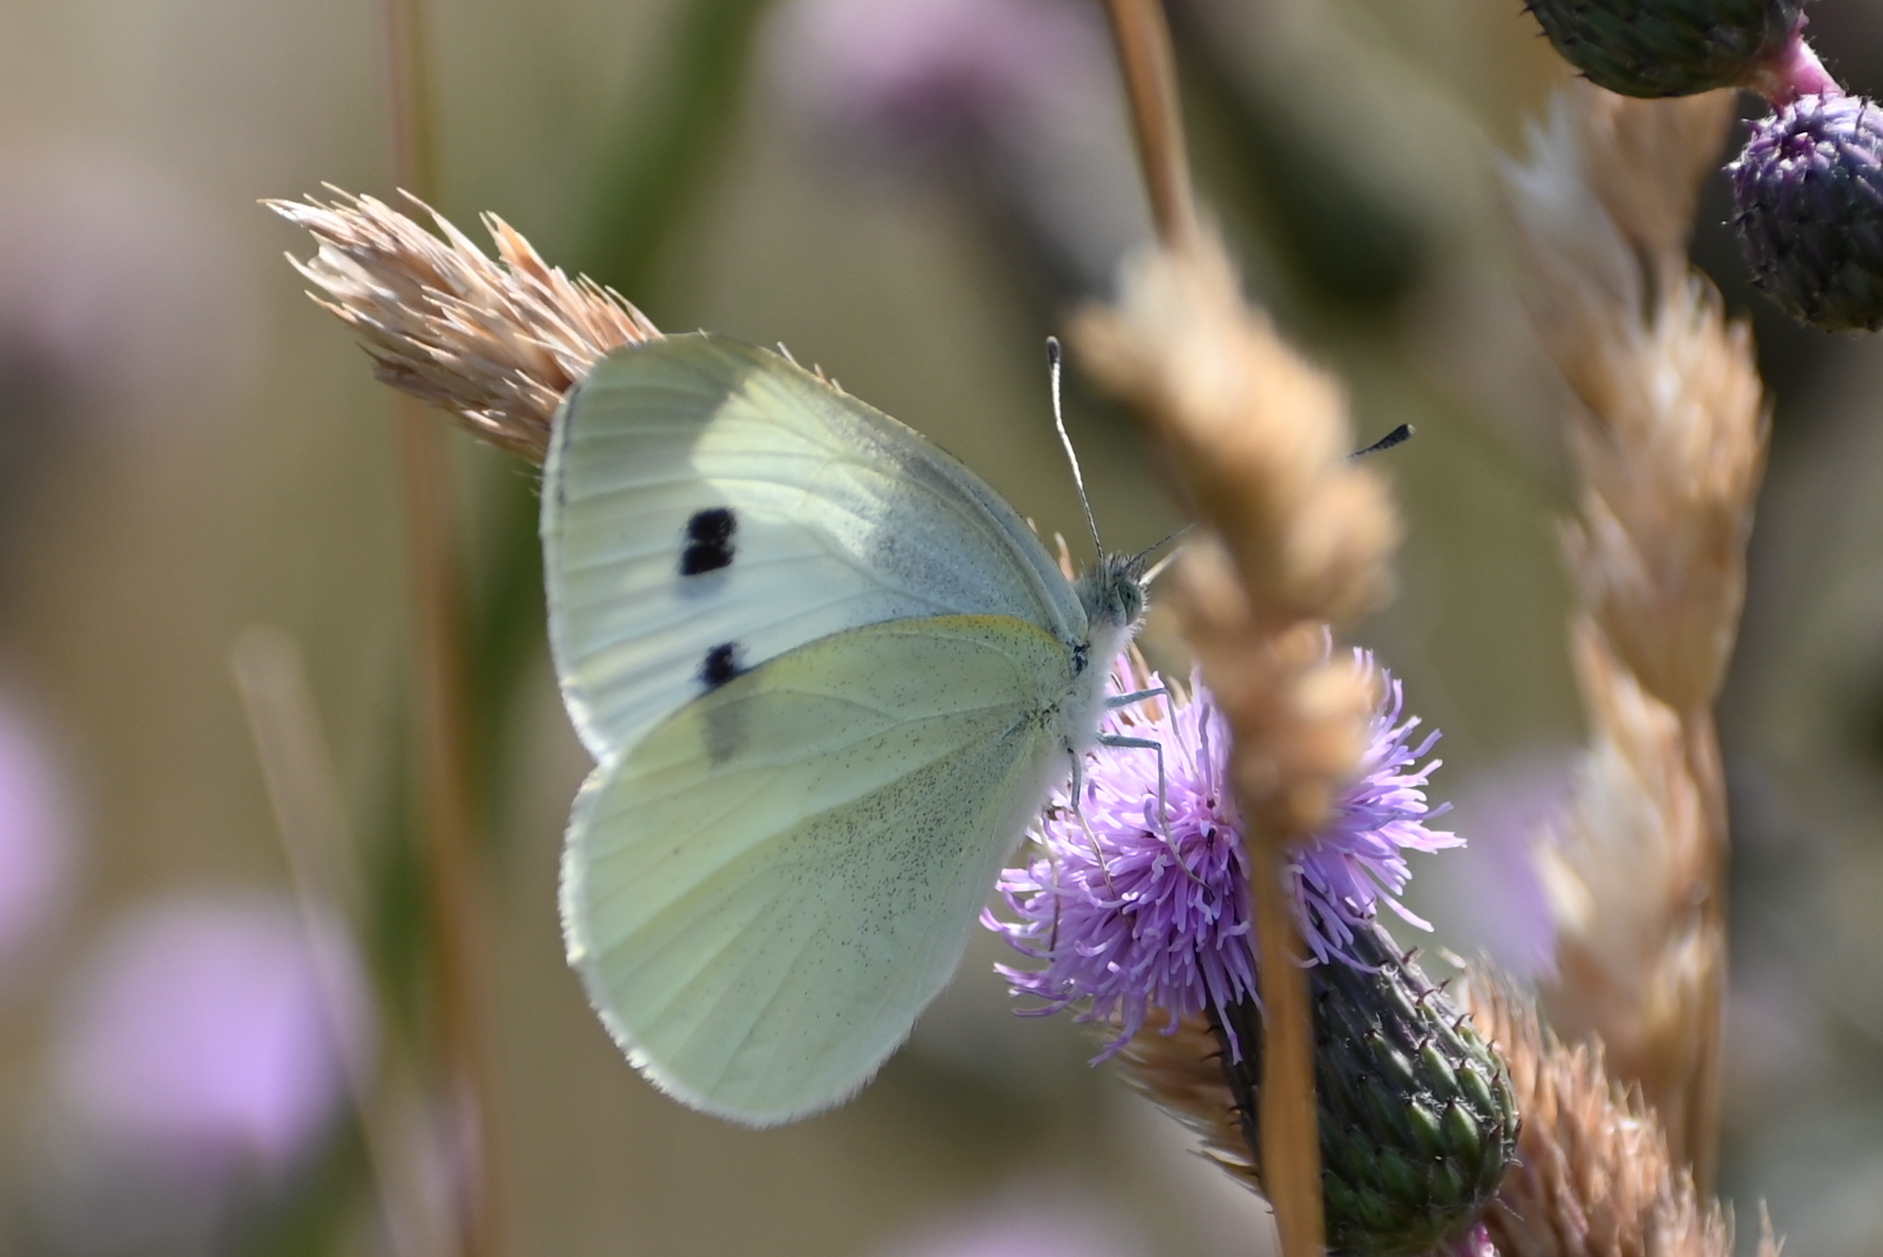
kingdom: Animalia
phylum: Arthropoda
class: Insecta
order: Lepidoptera
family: Pieridae
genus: Pieris
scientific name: Pieris rapae
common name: Small white
